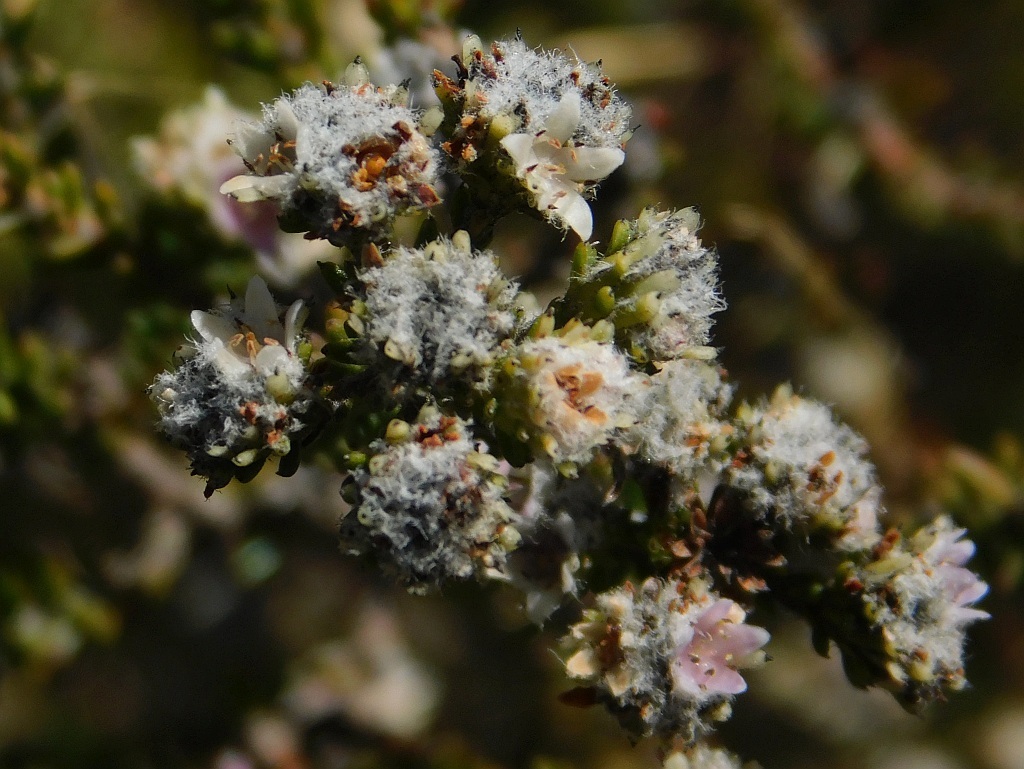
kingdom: Plantae
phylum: Tracheophyta
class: Magnoliopsida
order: Bruniales
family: Bruniaceae
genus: Staavia
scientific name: Staavia capitella
